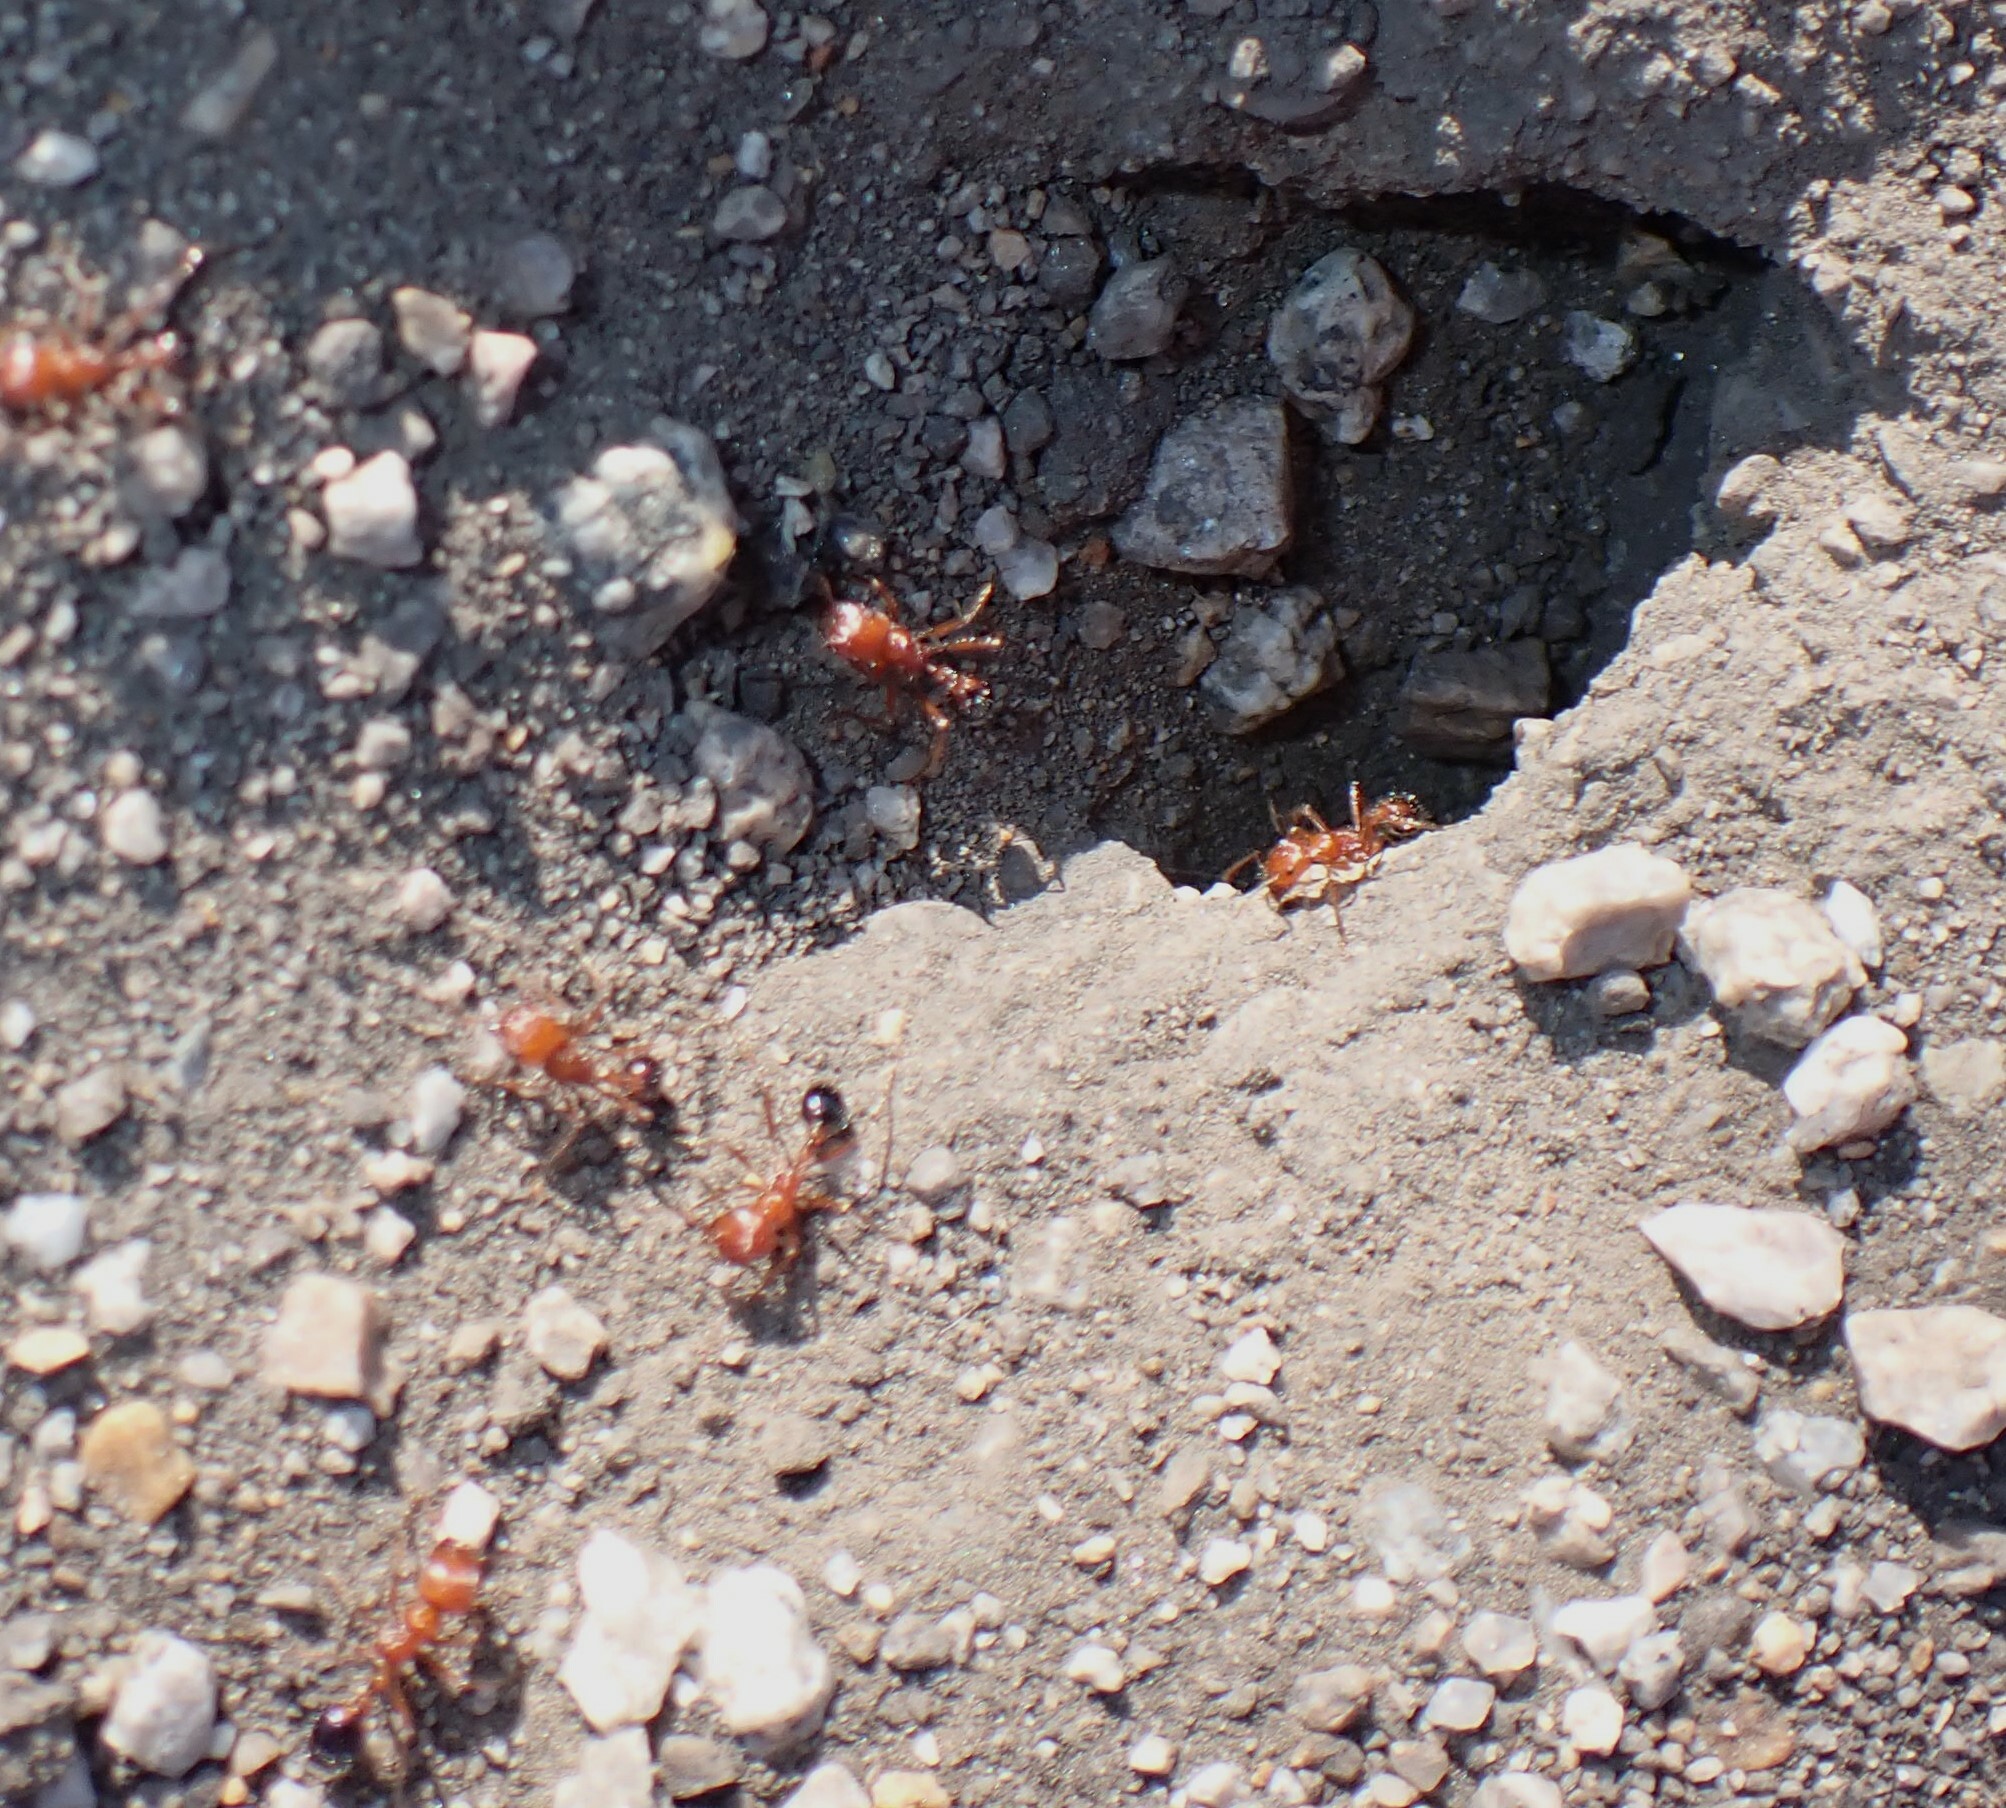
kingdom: Animalia
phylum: Arthropoda
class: Insecta
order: Hymenoptera
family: Formicidae
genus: Pogonomyrmex
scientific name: Pogonomyrmex californicus
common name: California harvester ant
